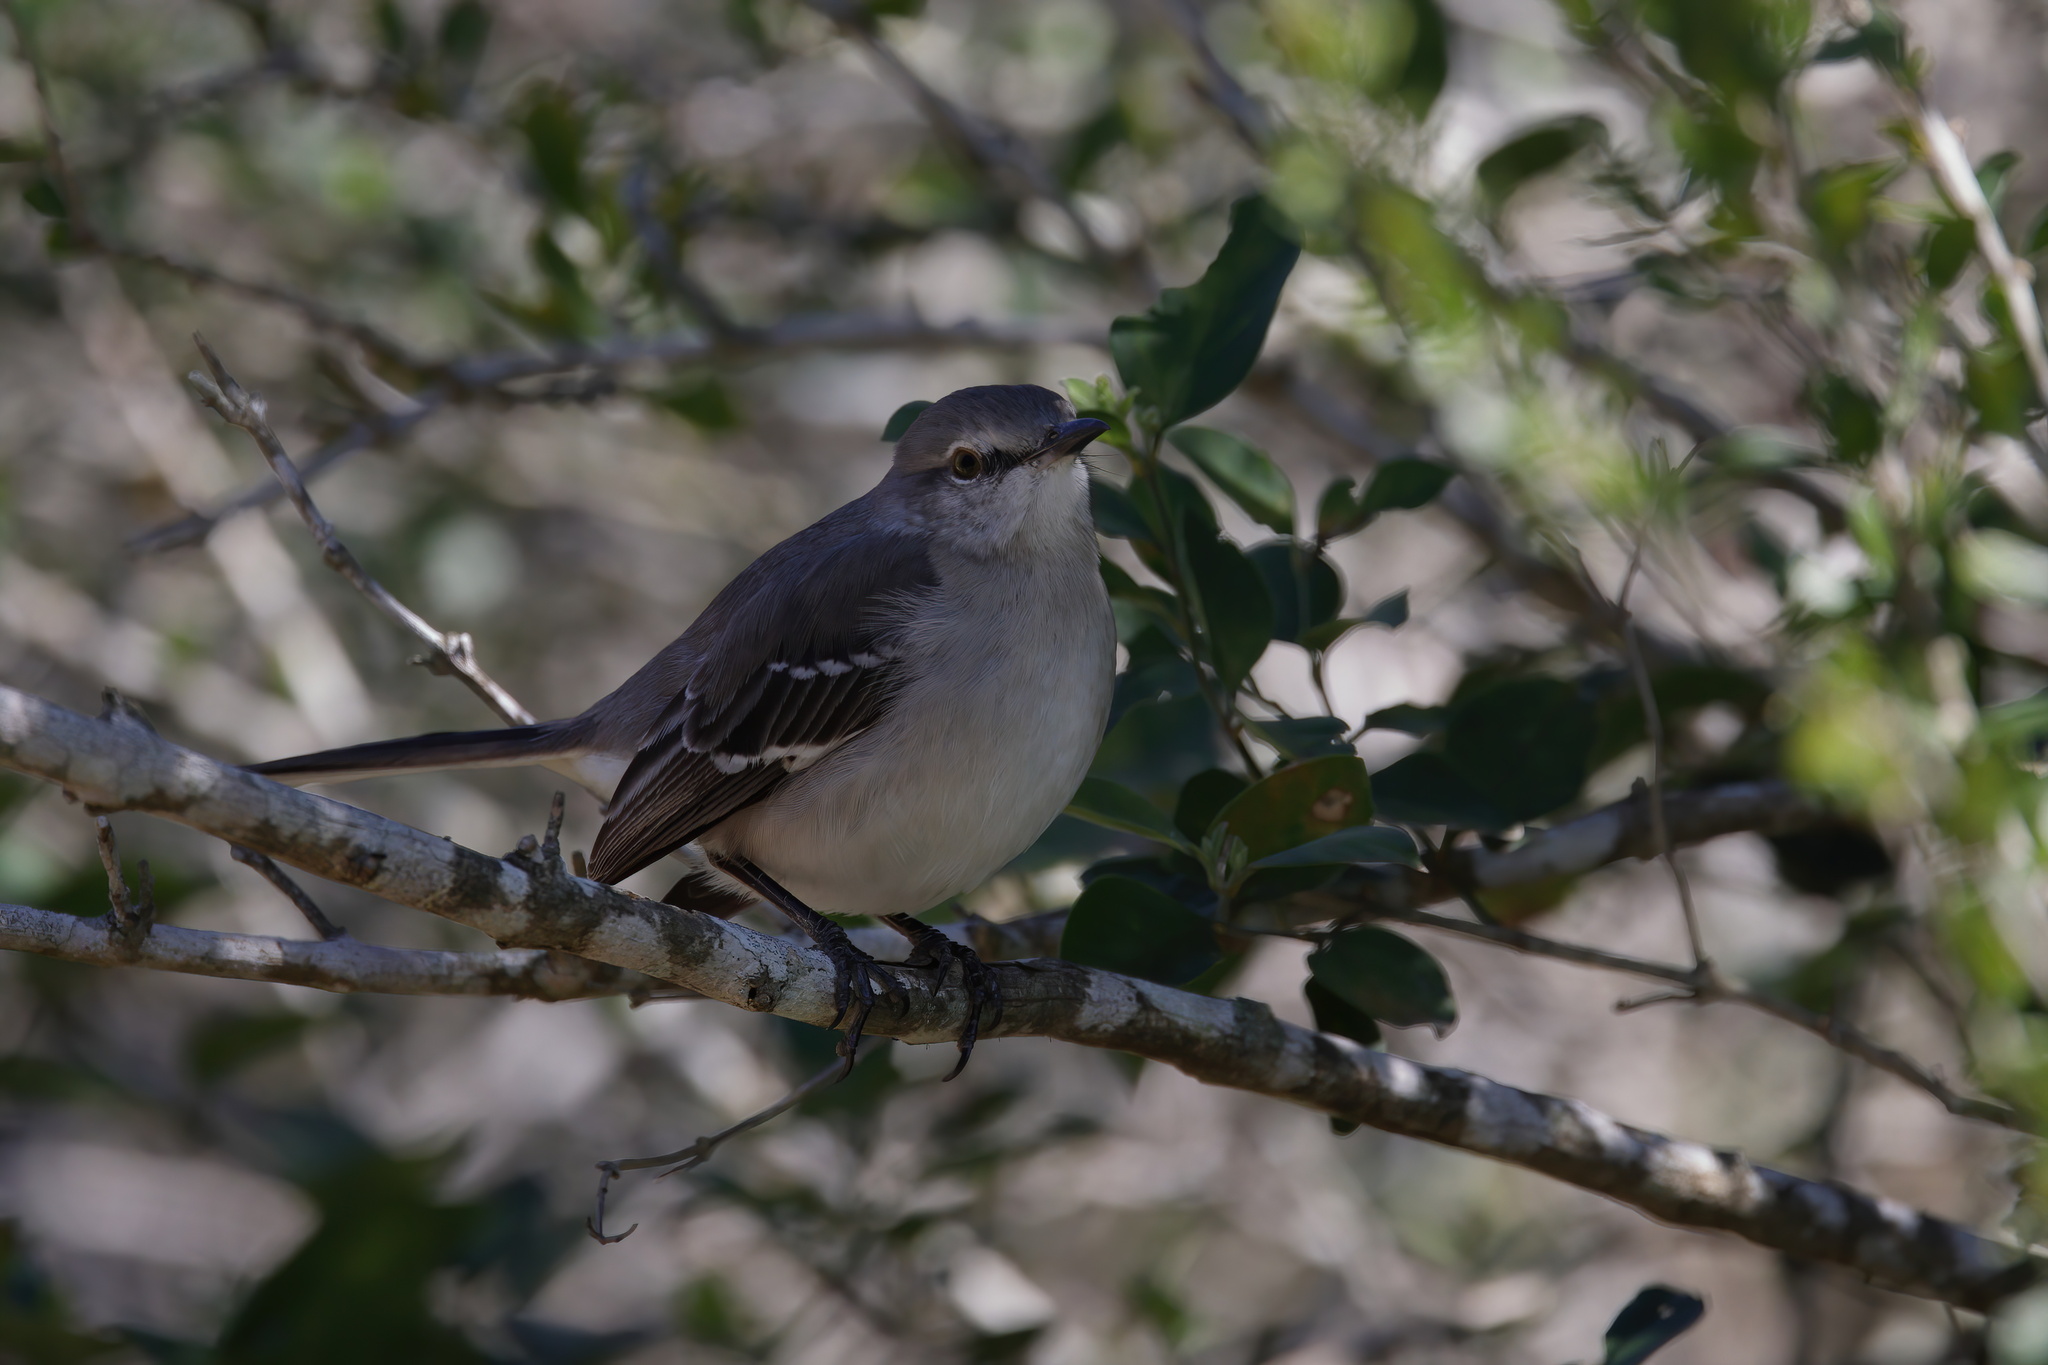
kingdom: Animalia
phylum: Chordata
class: Aves
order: Passeriformes
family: Mimidae
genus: Mimus
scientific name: Mimus polyglottos
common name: Northern mockingbird
